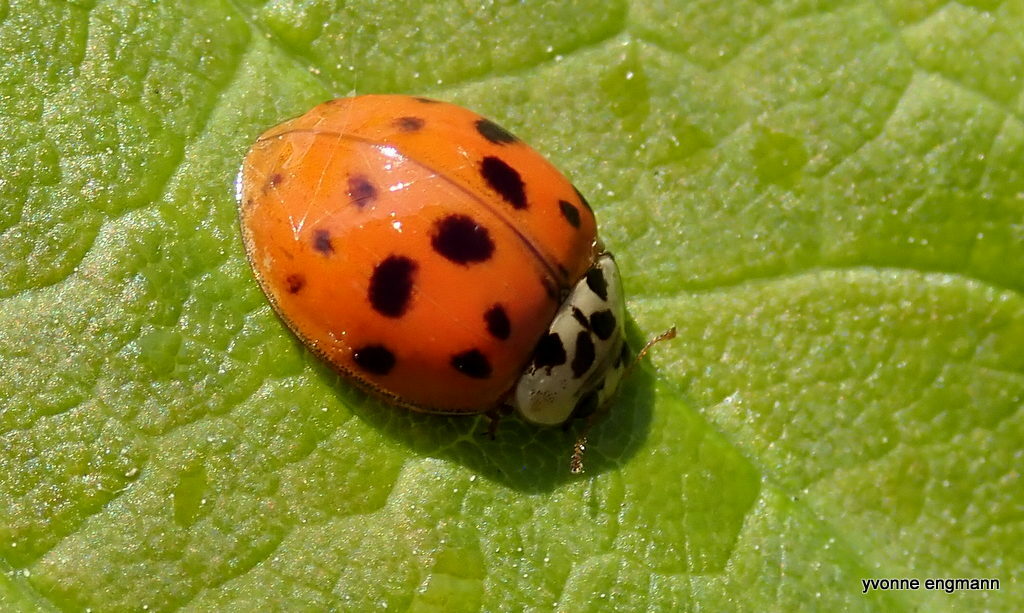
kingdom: Animalia
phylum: Arthropoda
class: Insecta
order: Coleoptera
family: Coccinellidae
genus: Harmonia
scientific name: Harmonia axyridis
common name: Harlequin ladybird
